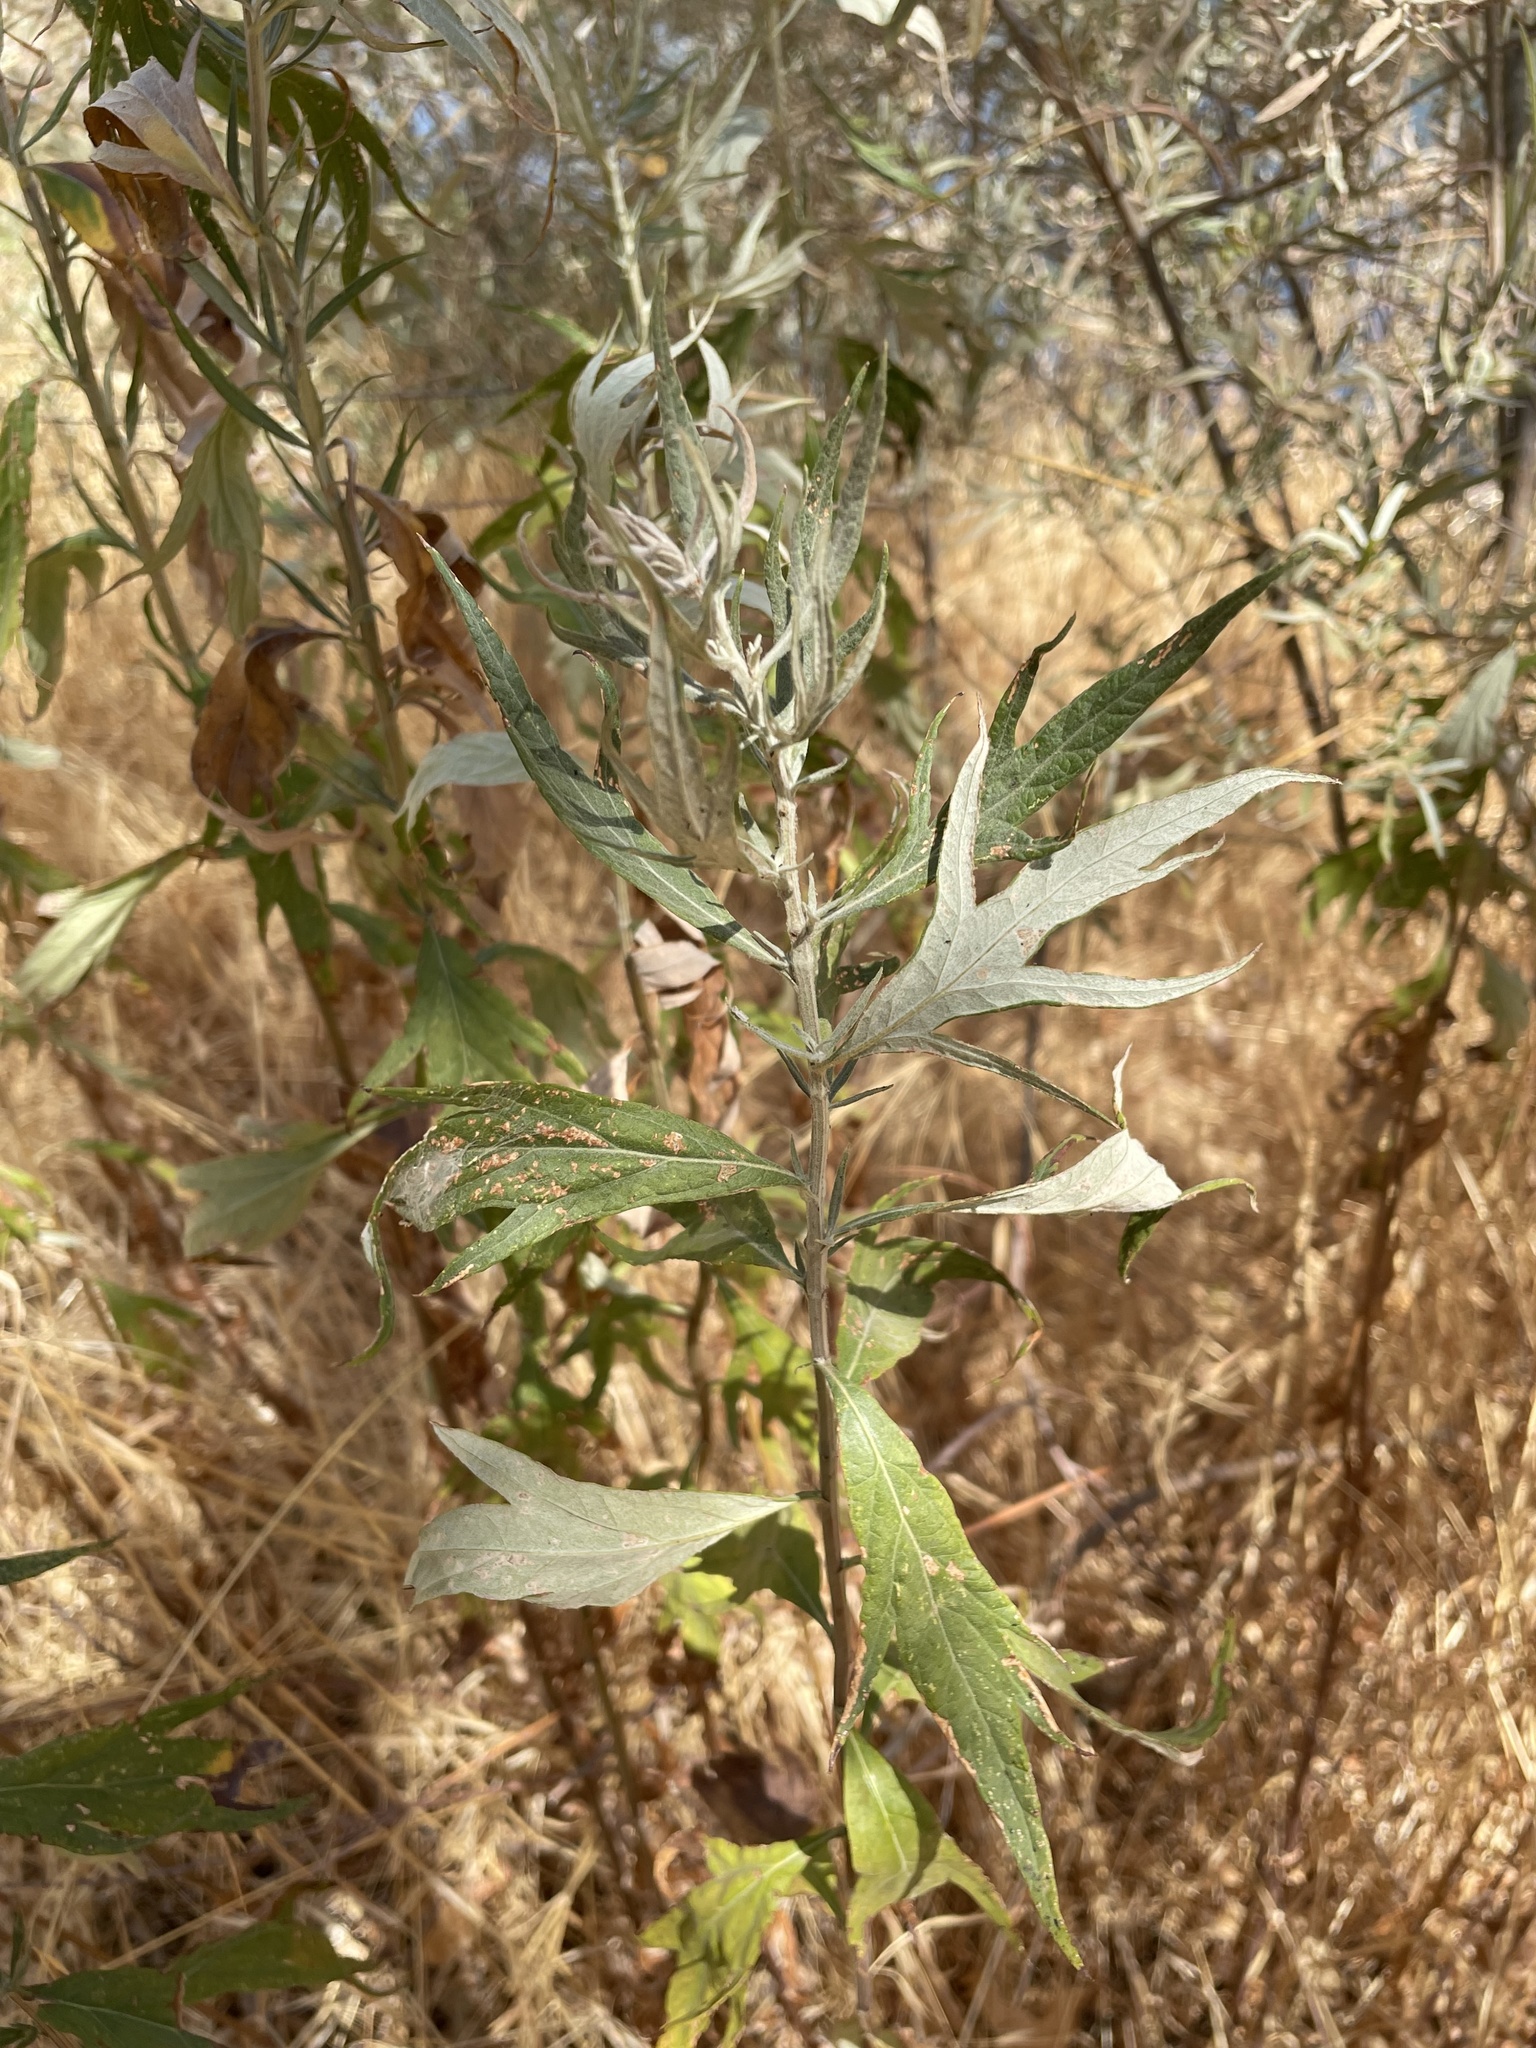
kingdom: Plantae
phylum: Tracheophyta
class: Magnoliopsida
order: Asterales
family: Asteraceae
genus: Artemisia
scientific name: Artemisia douglasiana
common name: Northwest mugwort
